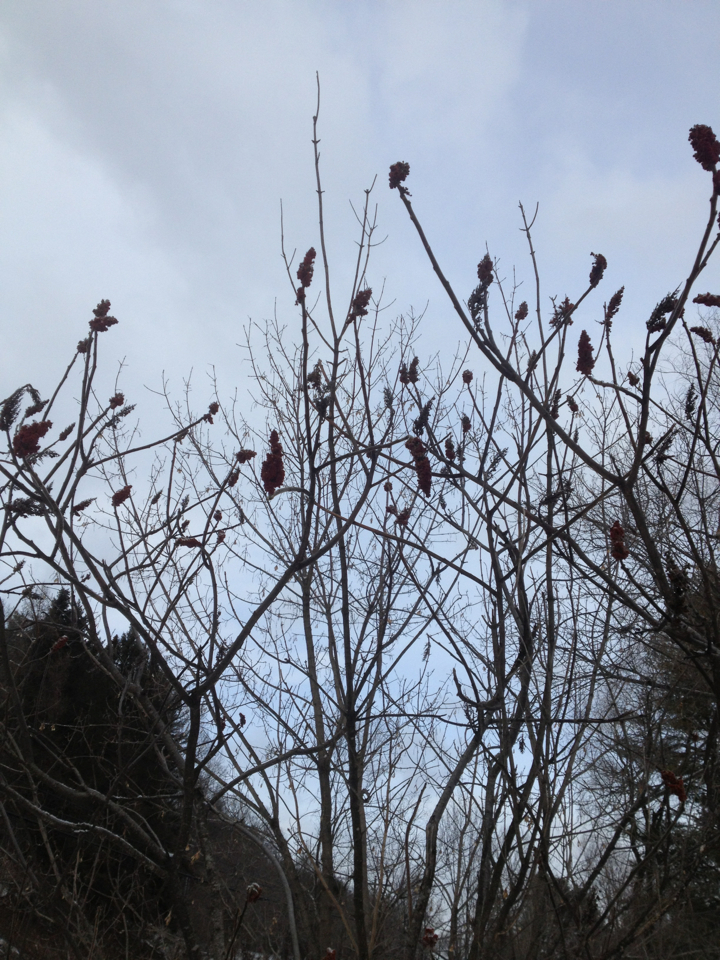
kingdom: Plantae
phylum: Tracheophyta
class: Magnoliopsida
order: Sapindales
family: Anacardiaceae
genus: Rhus
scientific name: Rhus typhina
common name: Staghorn sumac
